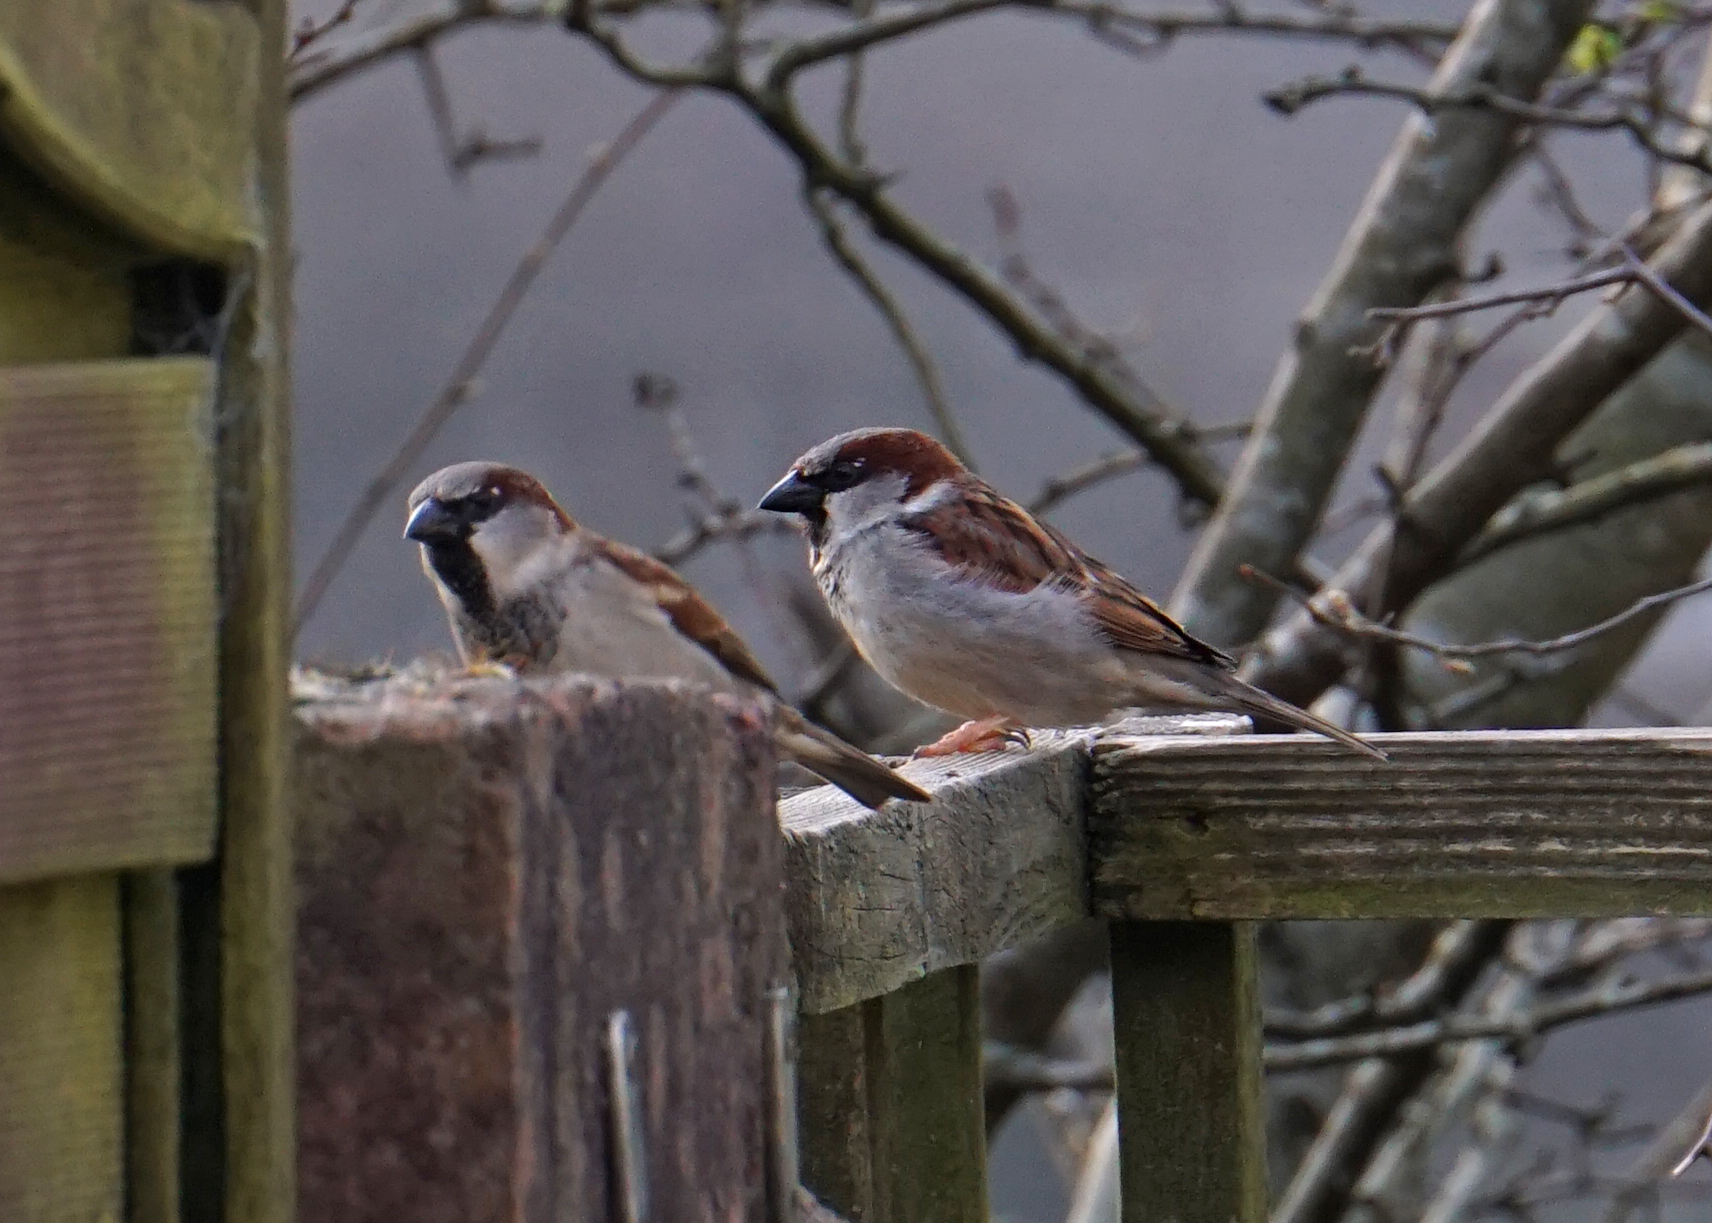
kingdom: Animalia
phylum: Chordata
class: Aves
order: Passeriformes
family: Passeridae
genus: Passer
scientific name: Passer domesticus
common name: House sparrow
